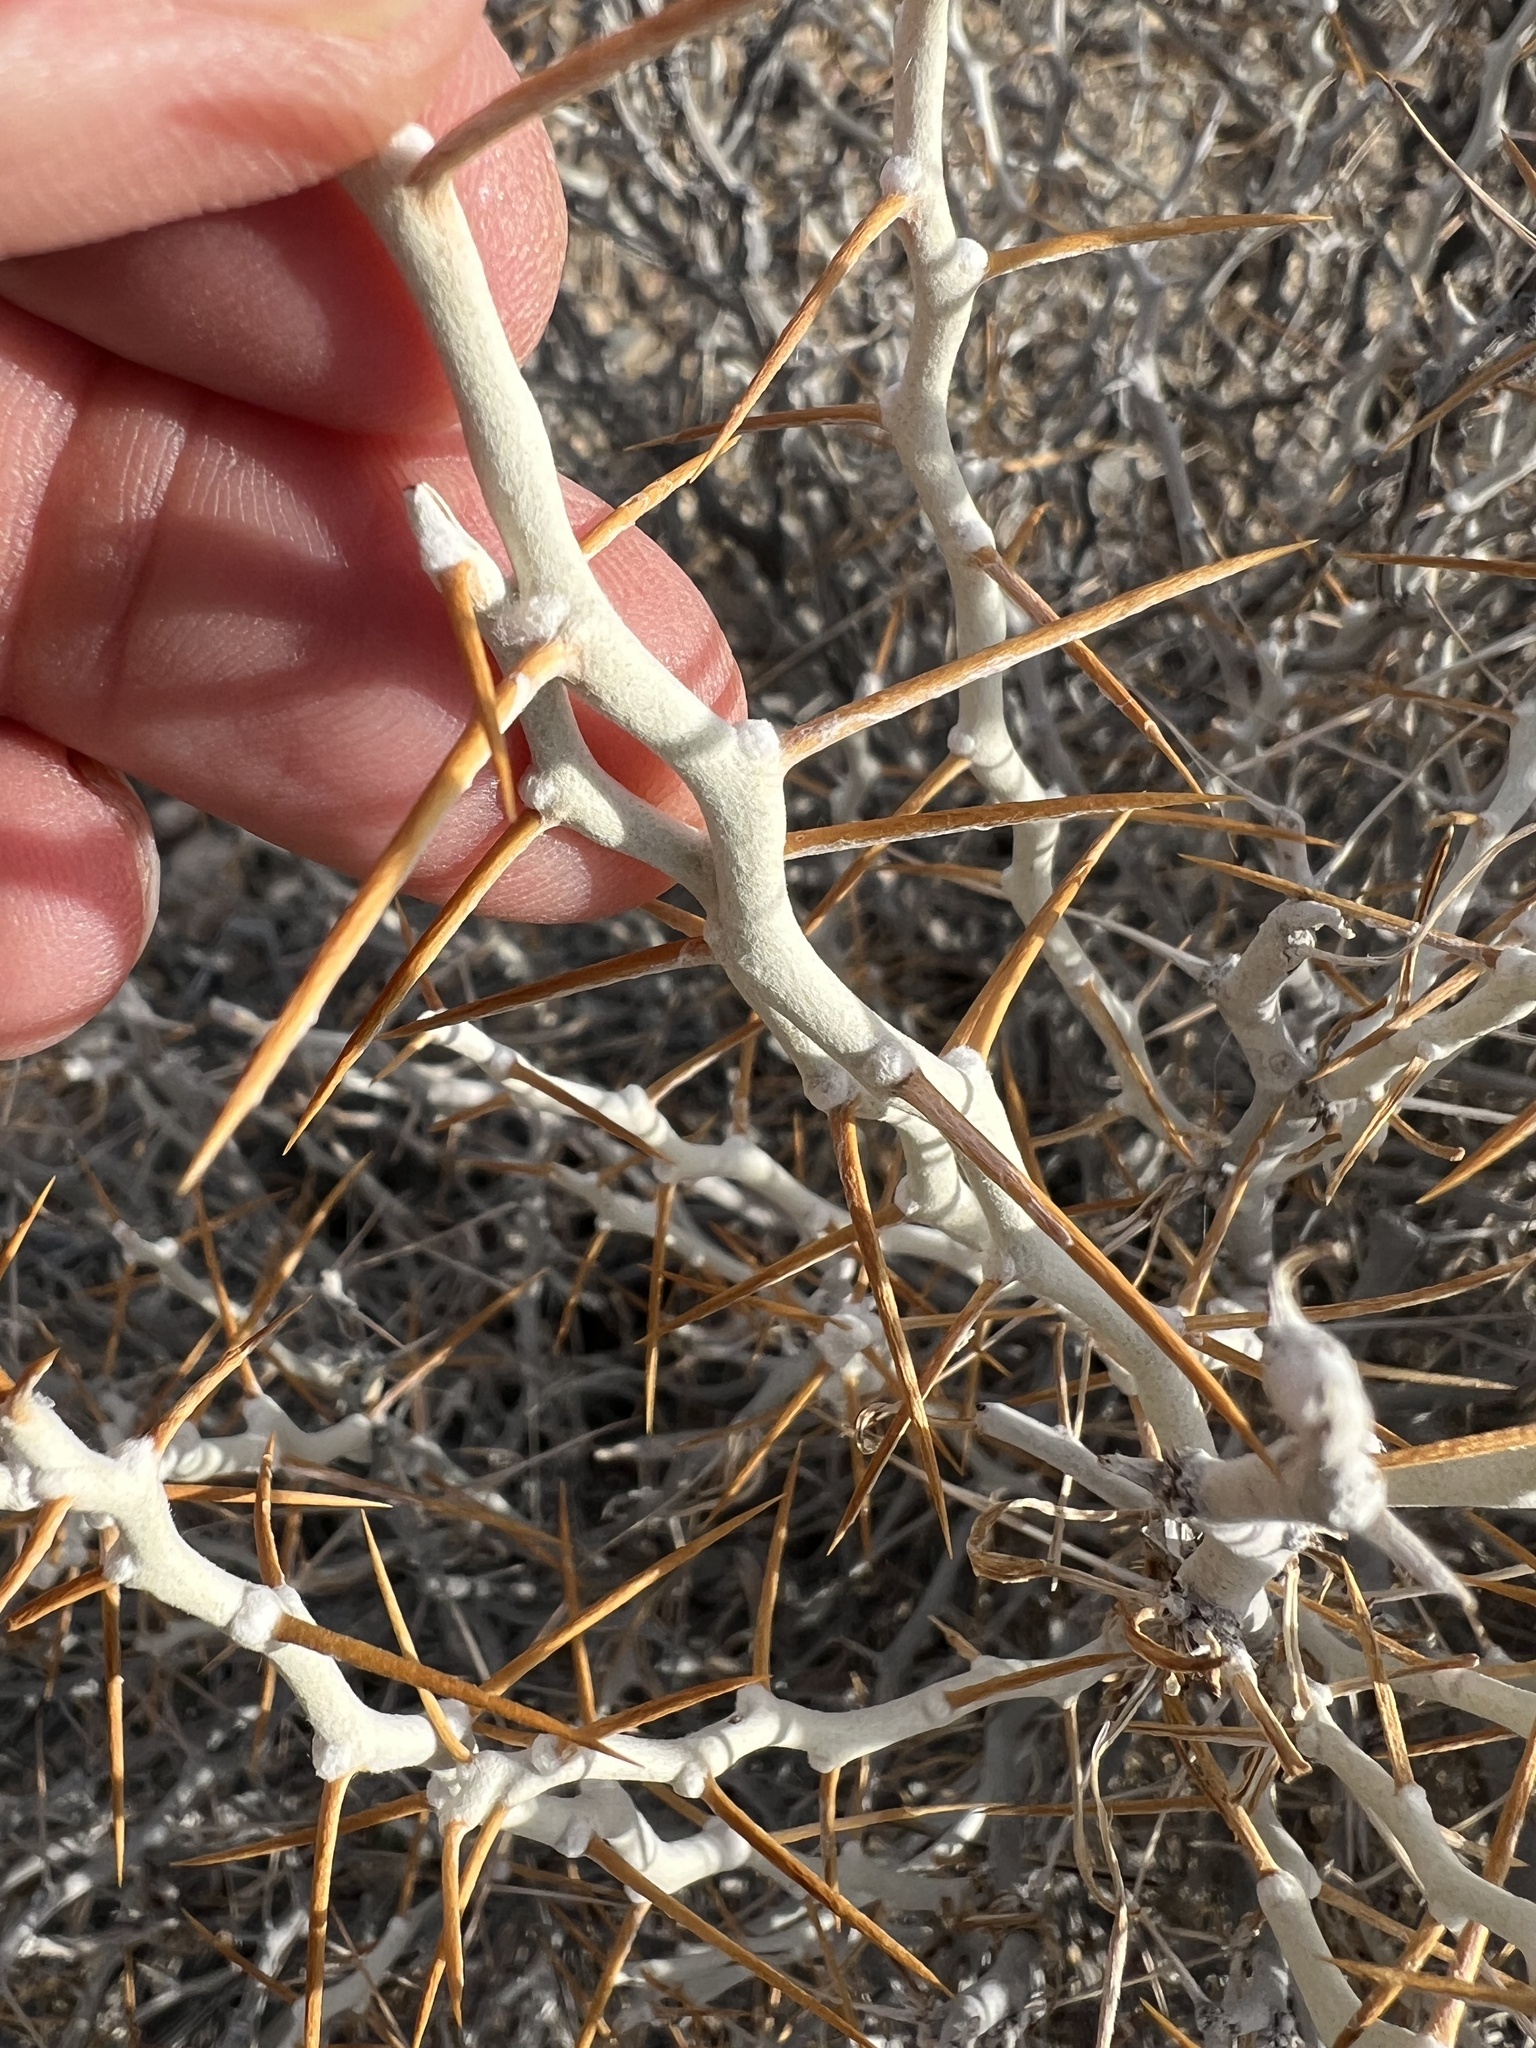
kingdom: Plantae
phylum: Tracheophyta
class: Magnoliopsida
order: Asterales
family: Asteraceae
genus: Tetradymia
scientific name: Tetradymia axillaris
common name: Long-spine horsebrush
